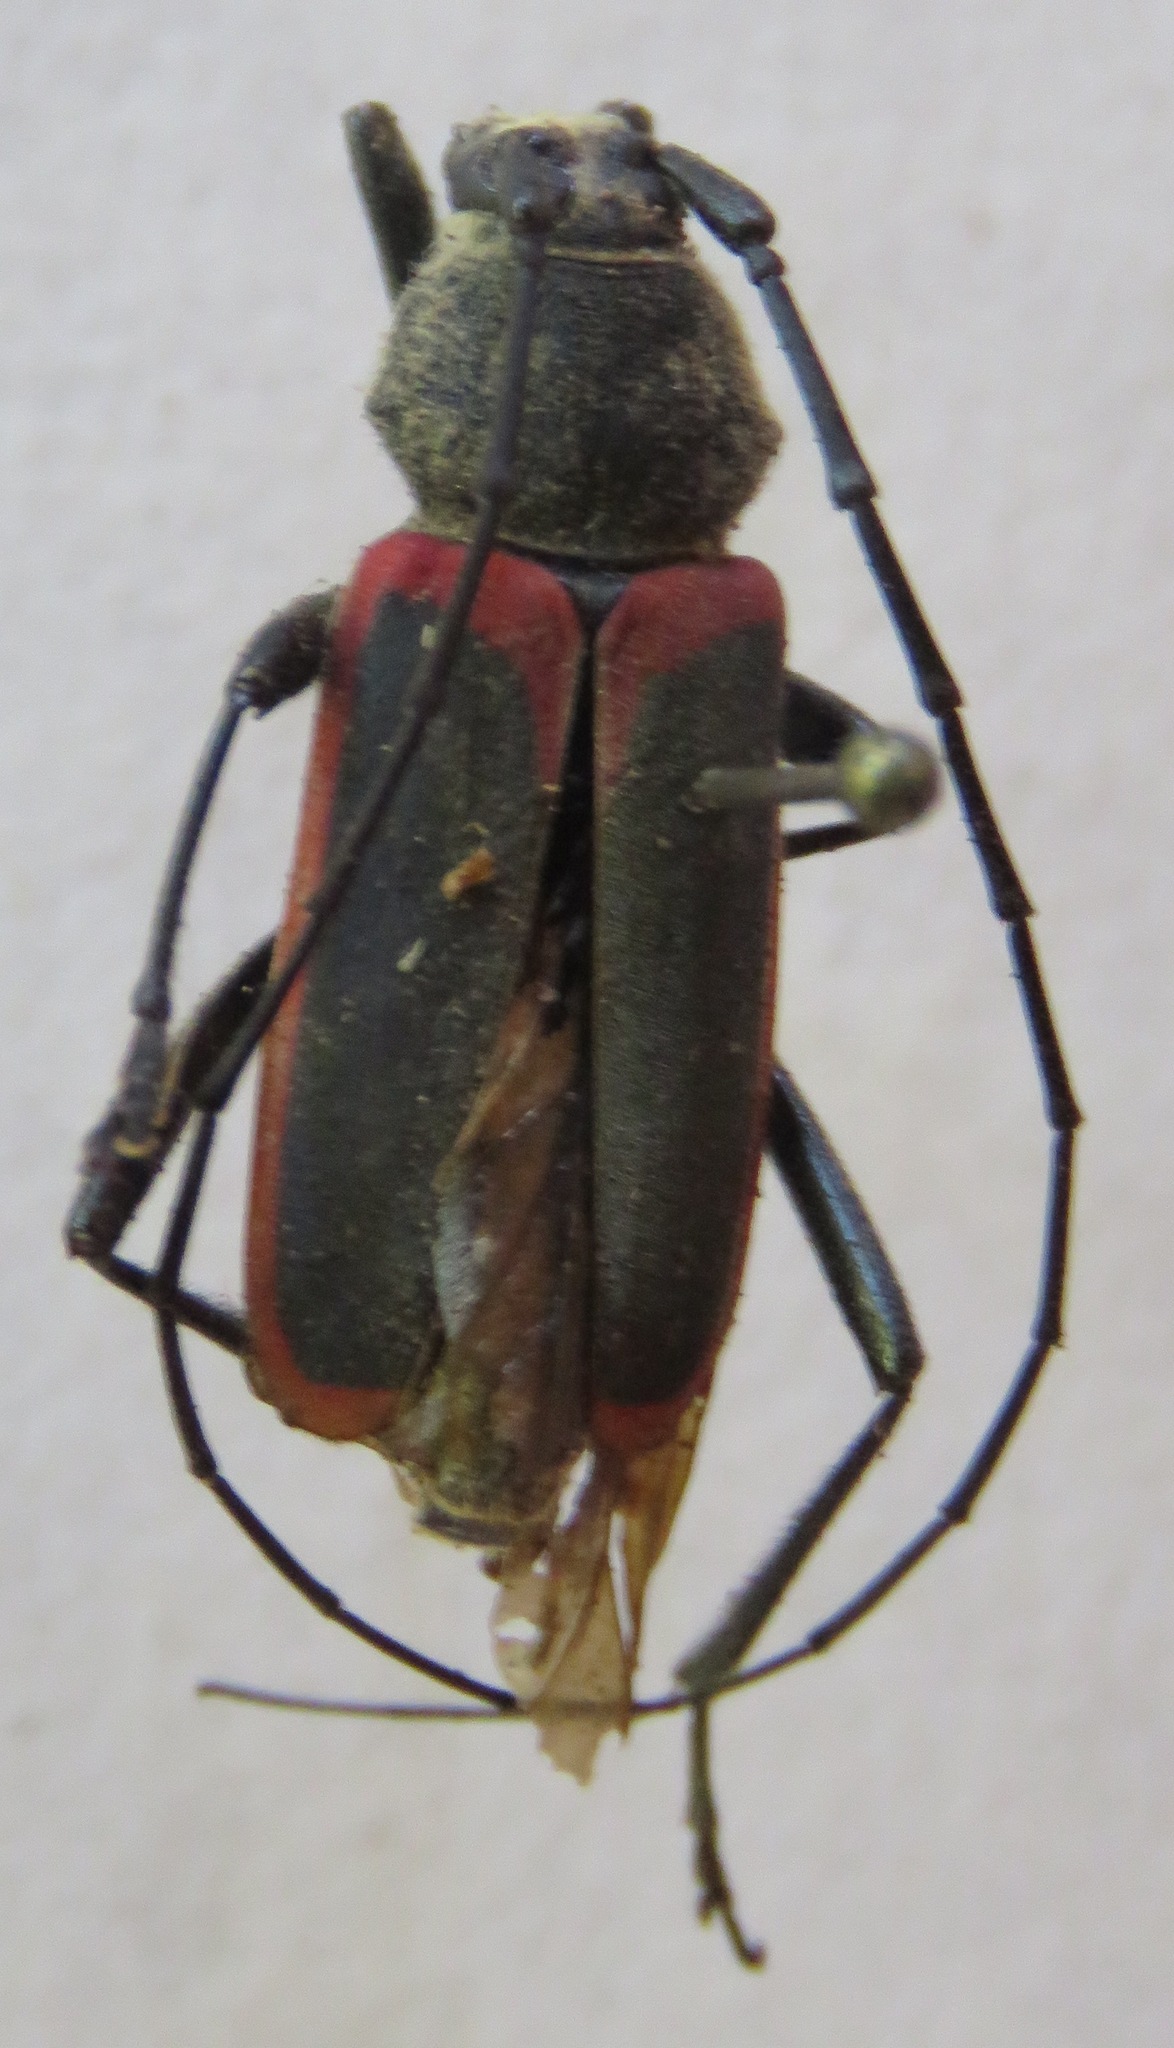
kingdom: Animalia
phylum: Arthropoda
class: Insecta
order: Coleoptera
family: Cerambycidae
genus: Metaleptus
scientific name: Metaleptus angulatus
